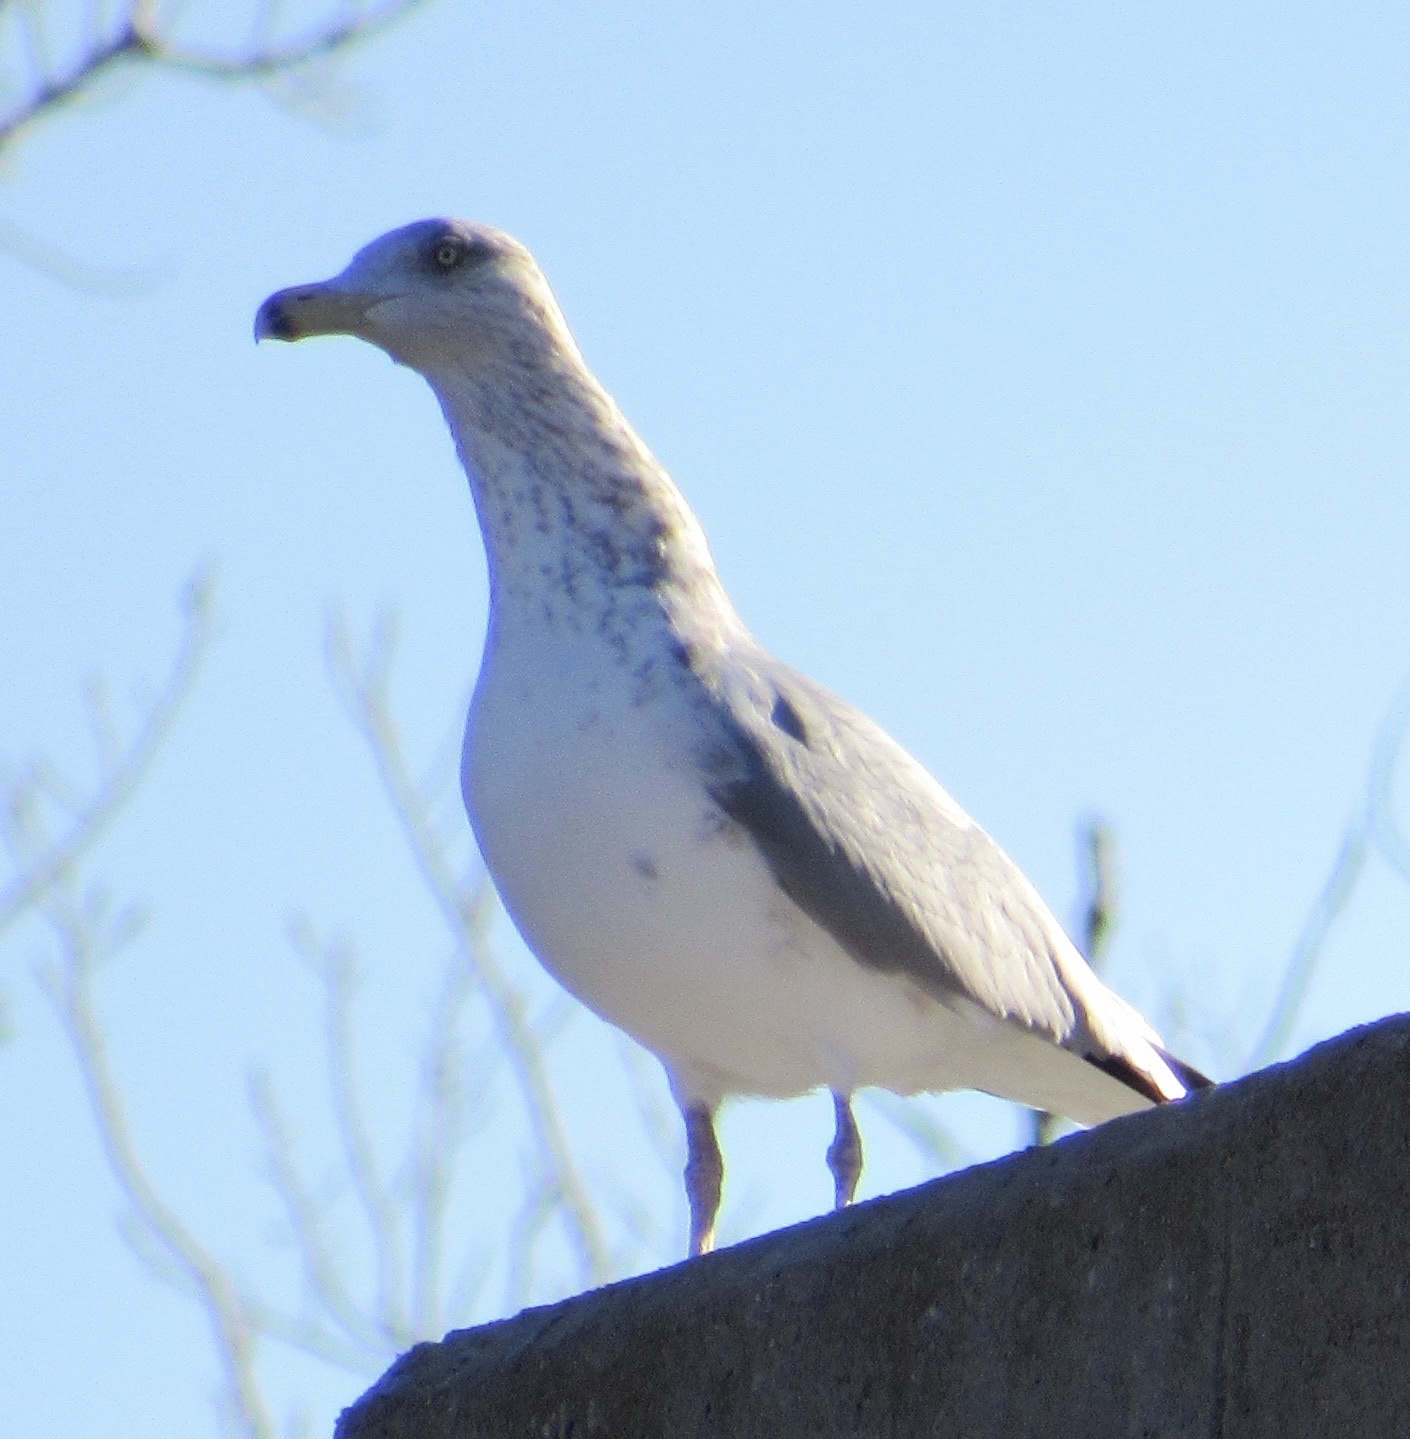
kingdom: Animalia
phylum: Chordata
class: Aves
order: Charadriiformes
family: Laridae
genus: Larus
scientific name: Larus argentatus
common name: Herring gull
